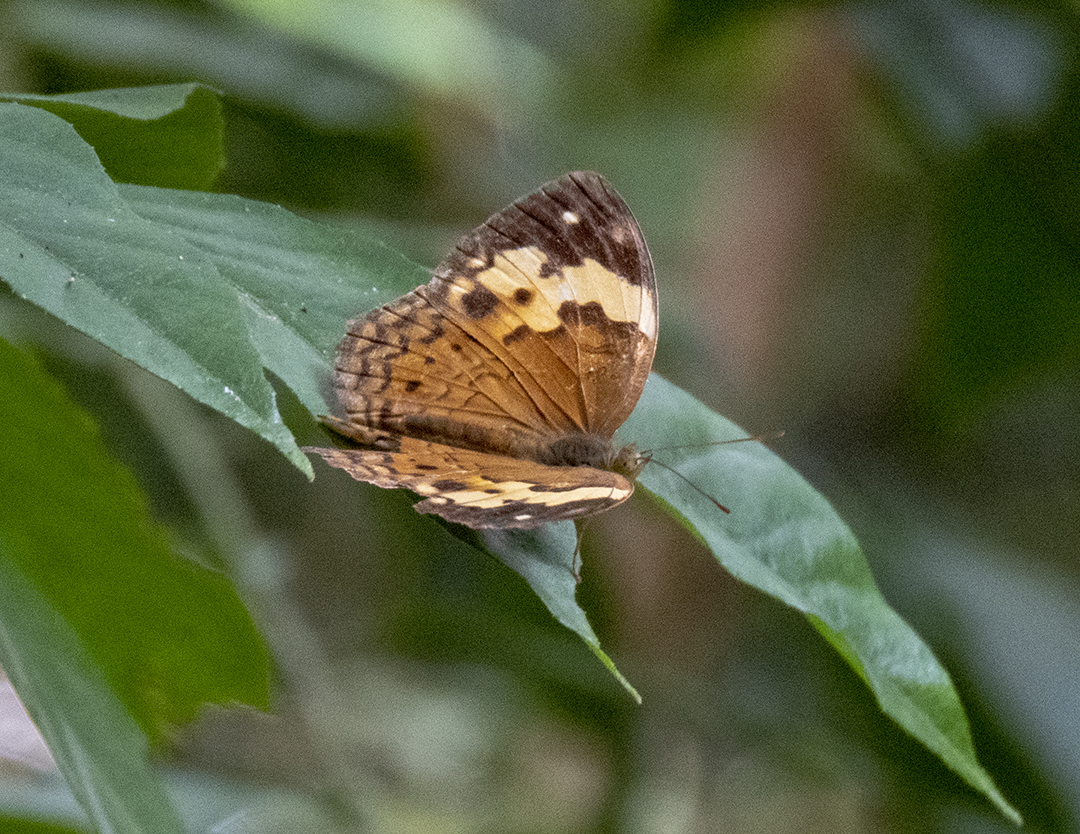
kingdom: Animalia
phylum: Arthropoda
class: Insecta
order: Lepidoptera
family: Nymphalidae
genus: Cupha
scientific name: Cupha erymanthis
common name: Rustic
